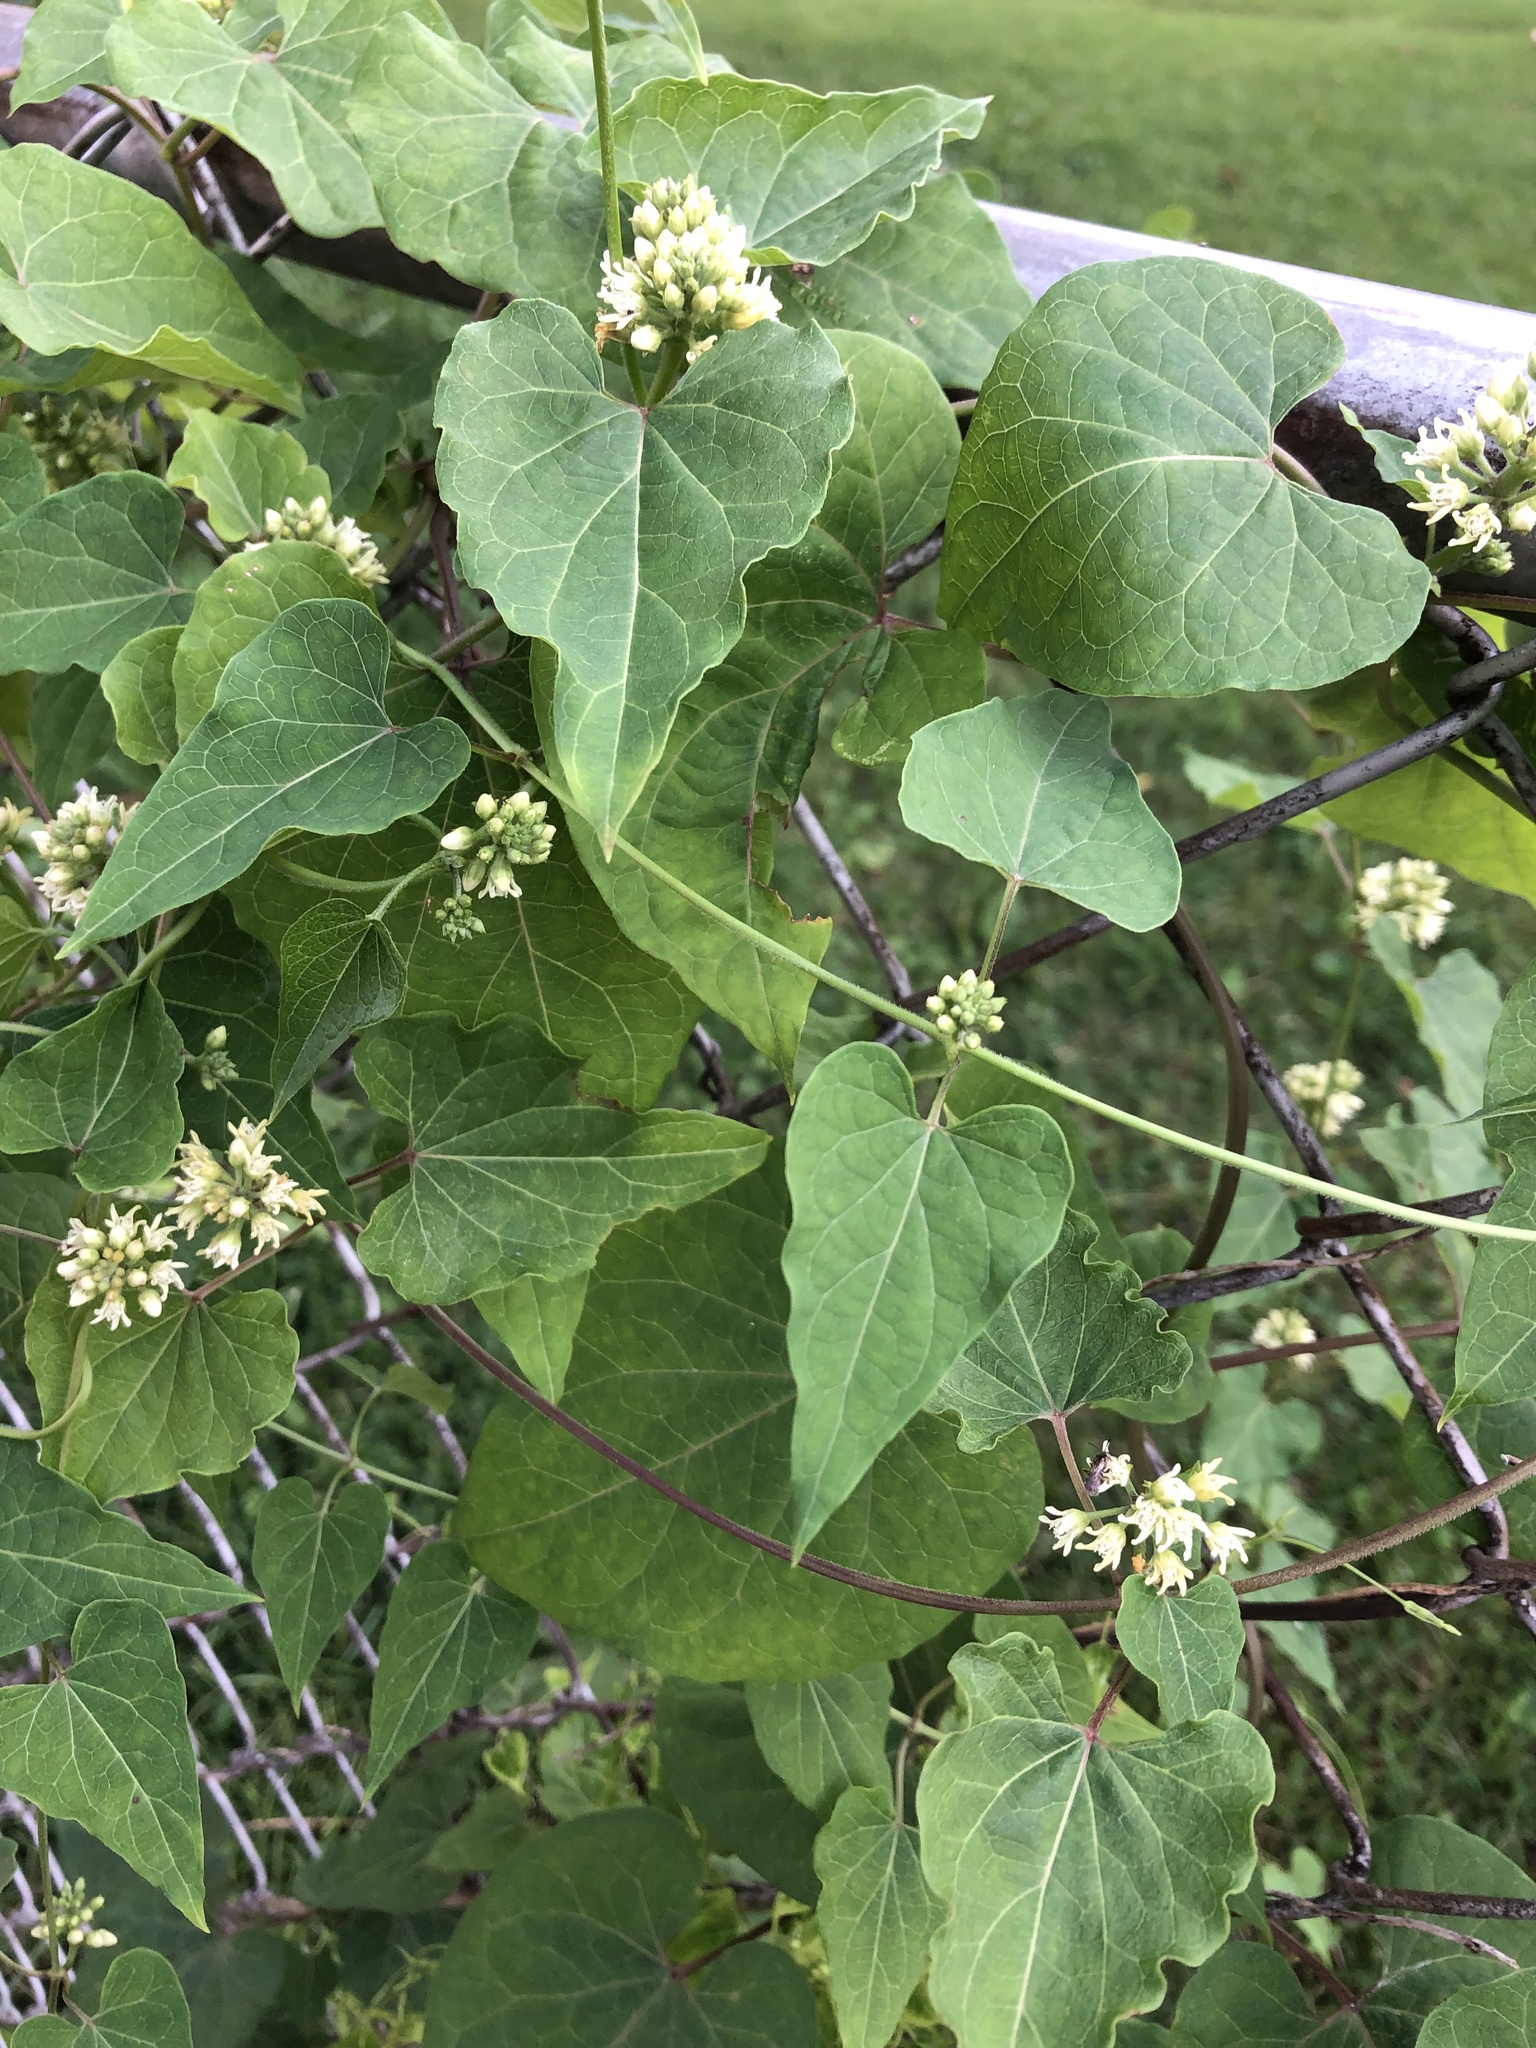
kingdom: Plantae
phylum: Tracheophyta
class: Magnoliopsida
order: Gentianales
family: Apocynaceae
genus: Cynanchum
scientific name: Cynanchum laeve
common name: Sandvine
